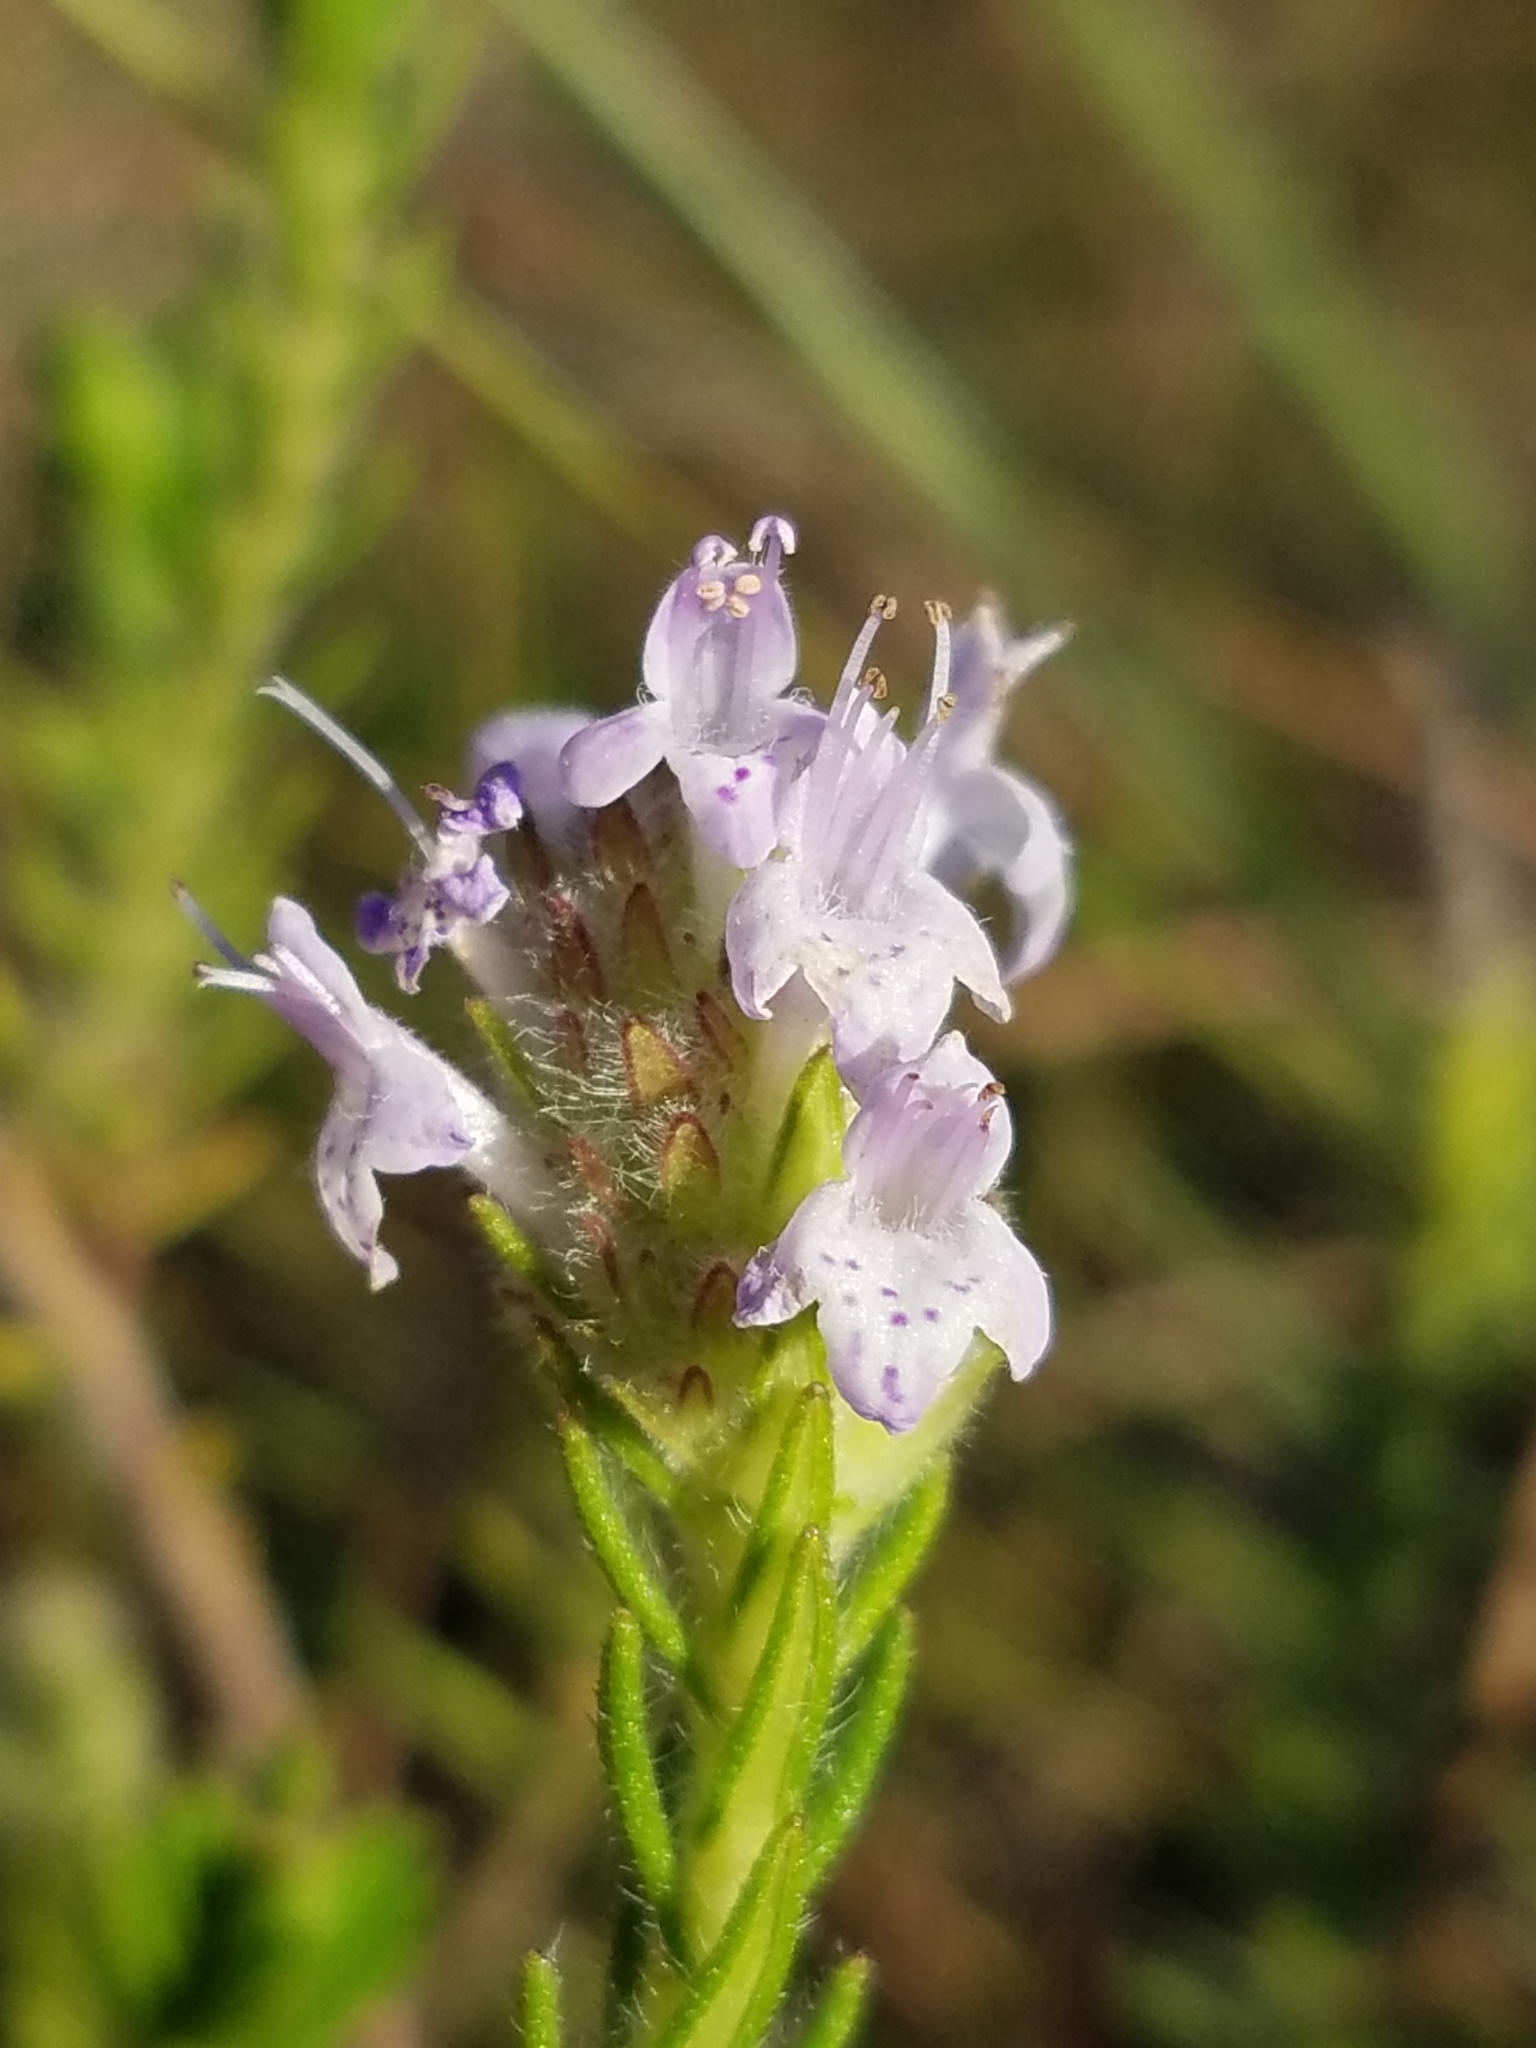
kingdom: Plantae
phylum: Tracheophyta
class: Magnoliopsida
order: Lamiales
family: Lamiaceae
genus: Piloblephis
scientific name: Piloblephis rigida
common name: Wild pennyroyal
